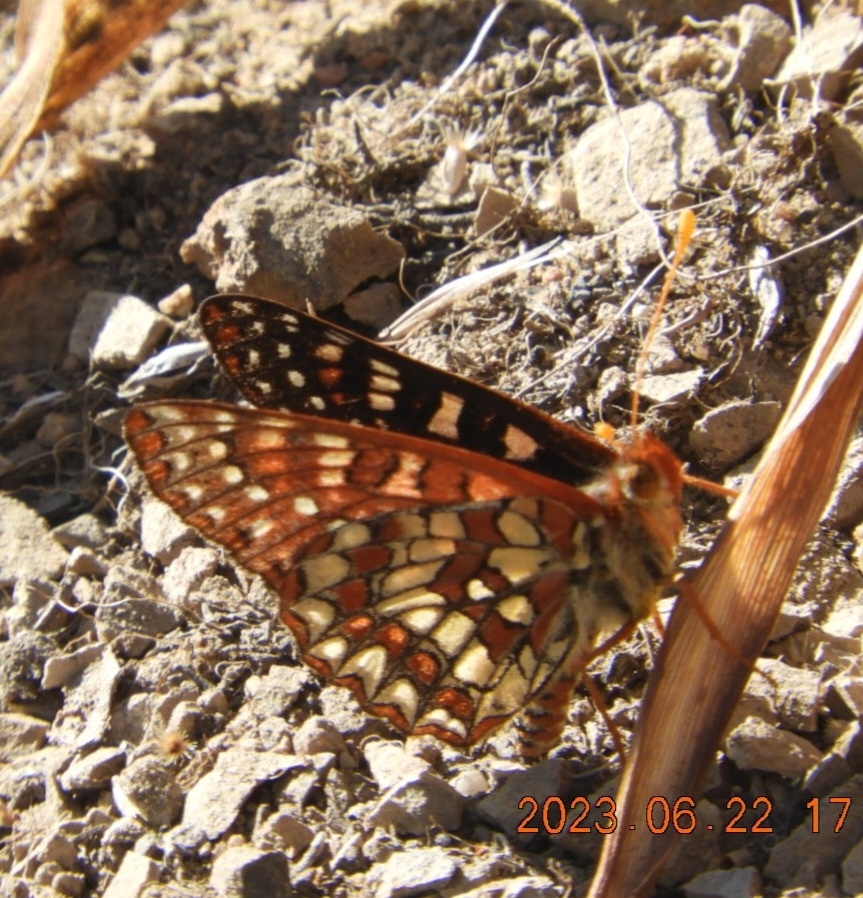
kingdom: Animalia
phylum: Arthropoda
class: Insecta
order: Lepidoptera
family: Nymphalidae
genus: Occidryas
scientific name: Occidryas chalcedona
